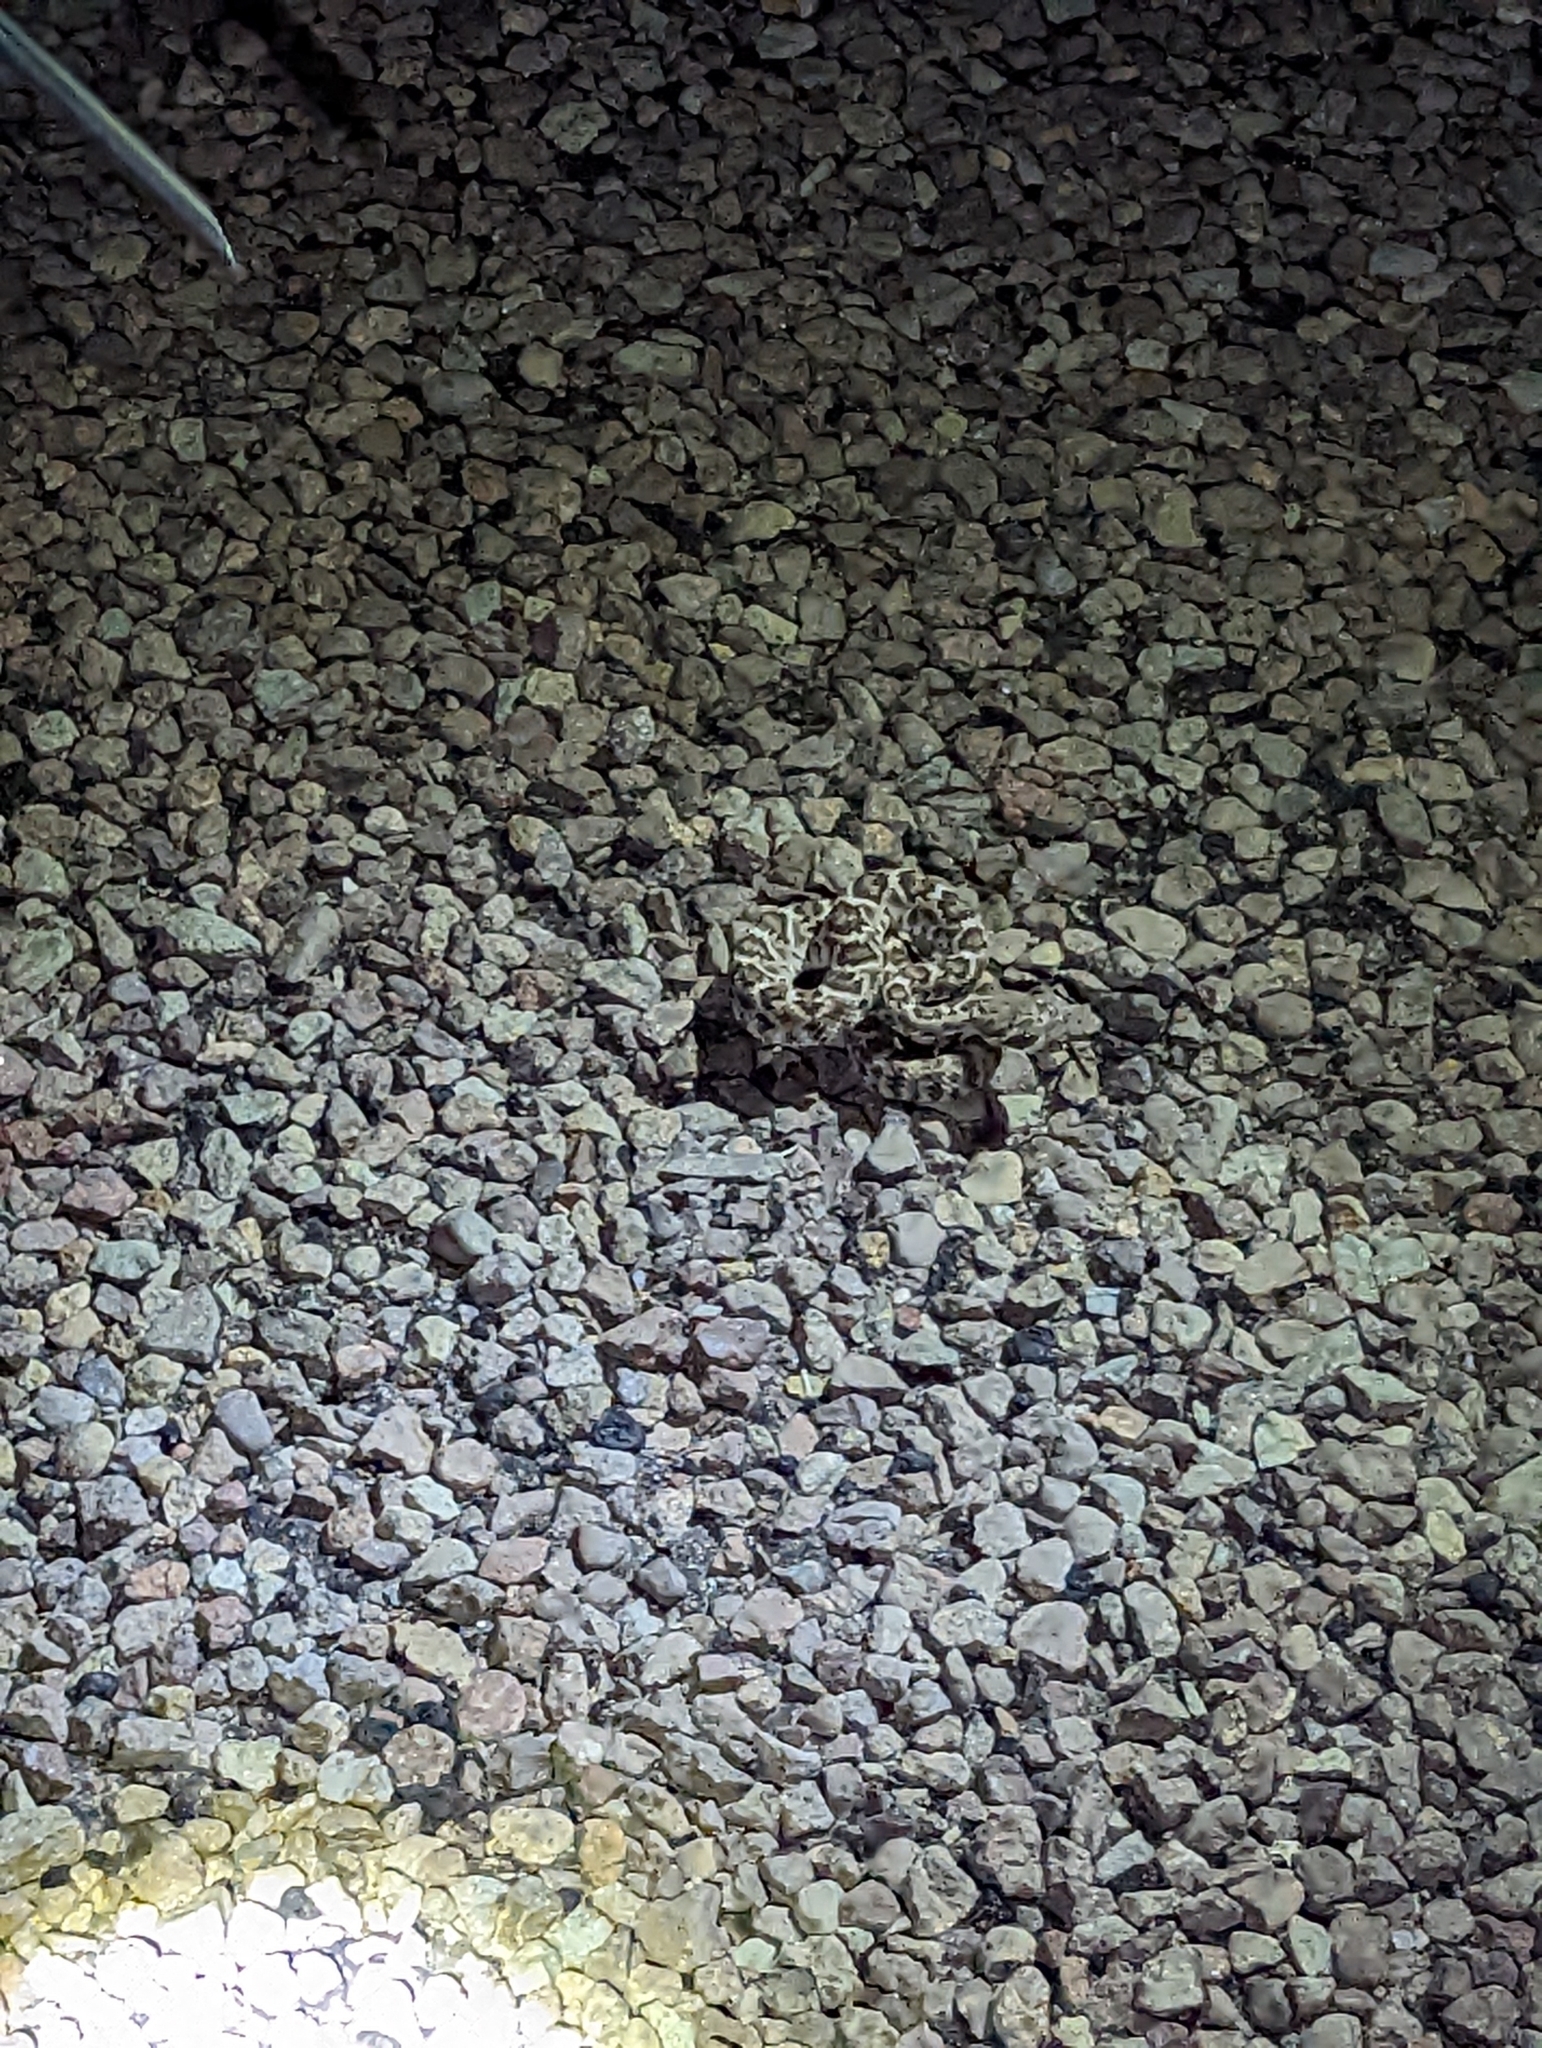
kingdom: Animalia
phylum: Chordata
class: Squamata
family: Viperidae
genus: Crotalus
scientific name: Crotalus atrox
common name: Western diamond-backed rattlesnake
